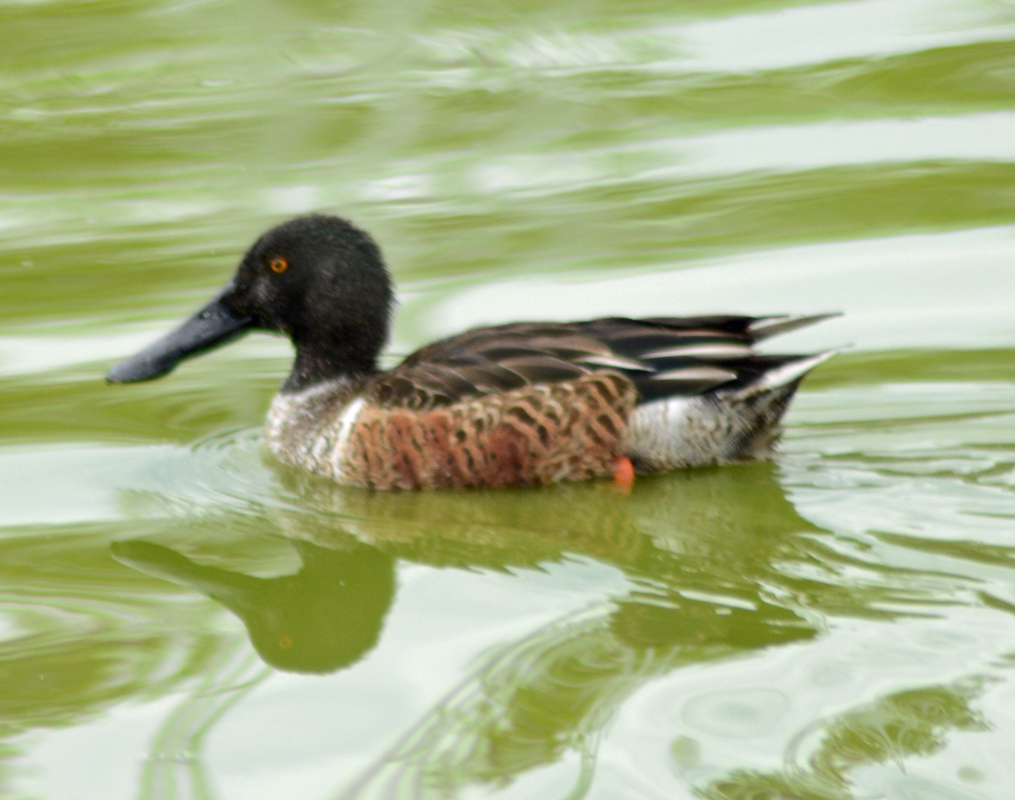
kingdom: Animalia
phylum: Chordata
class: Aves
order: Anseriformes
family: Anatidae
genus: Spatula
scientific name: Spatula clypeata
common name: Northern shoveler
